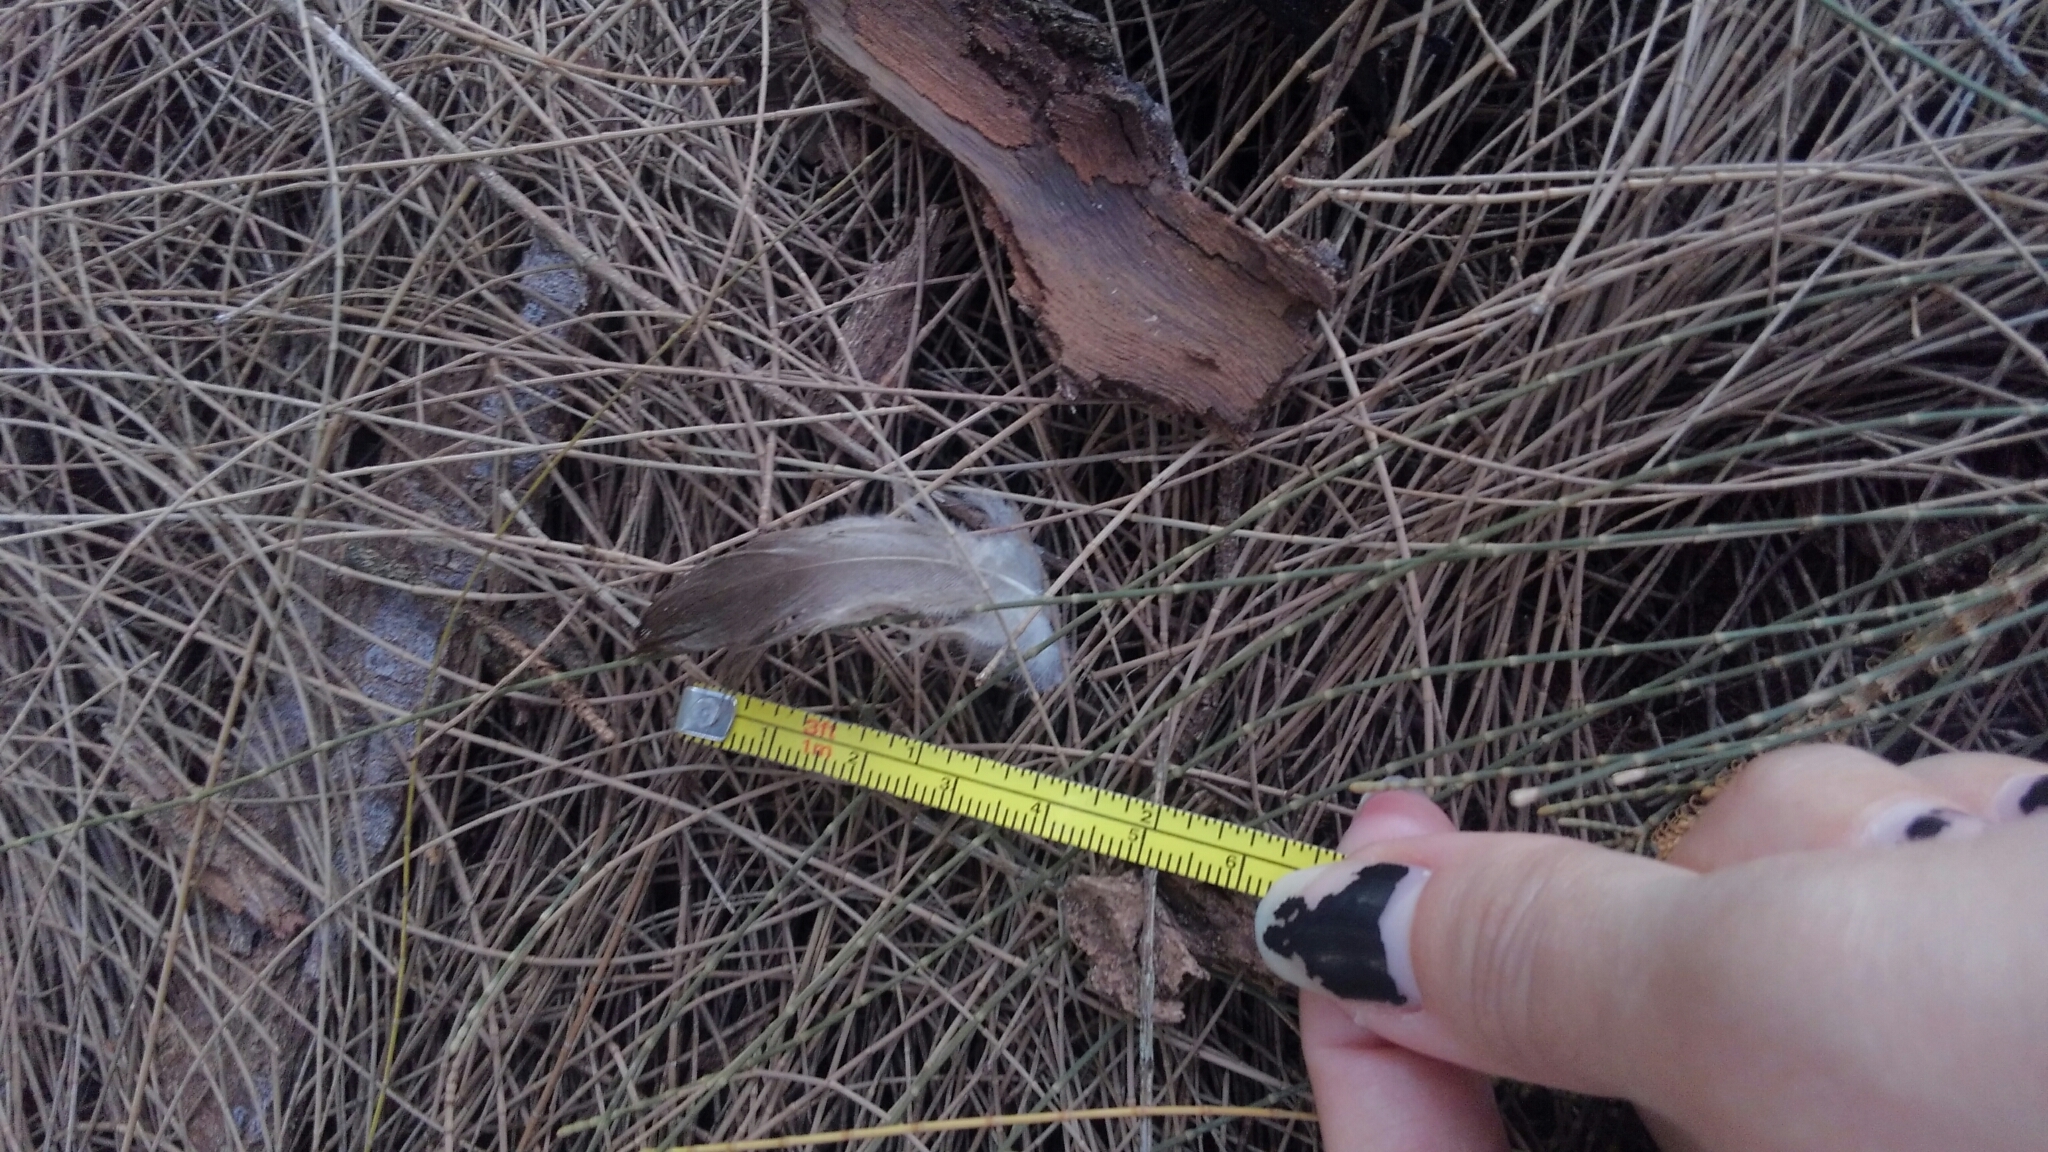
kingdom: Animalia
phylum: Chordata
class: Aves
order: Anseriformes
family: Anatidae
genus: Cairina
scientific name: Cairina moschata
